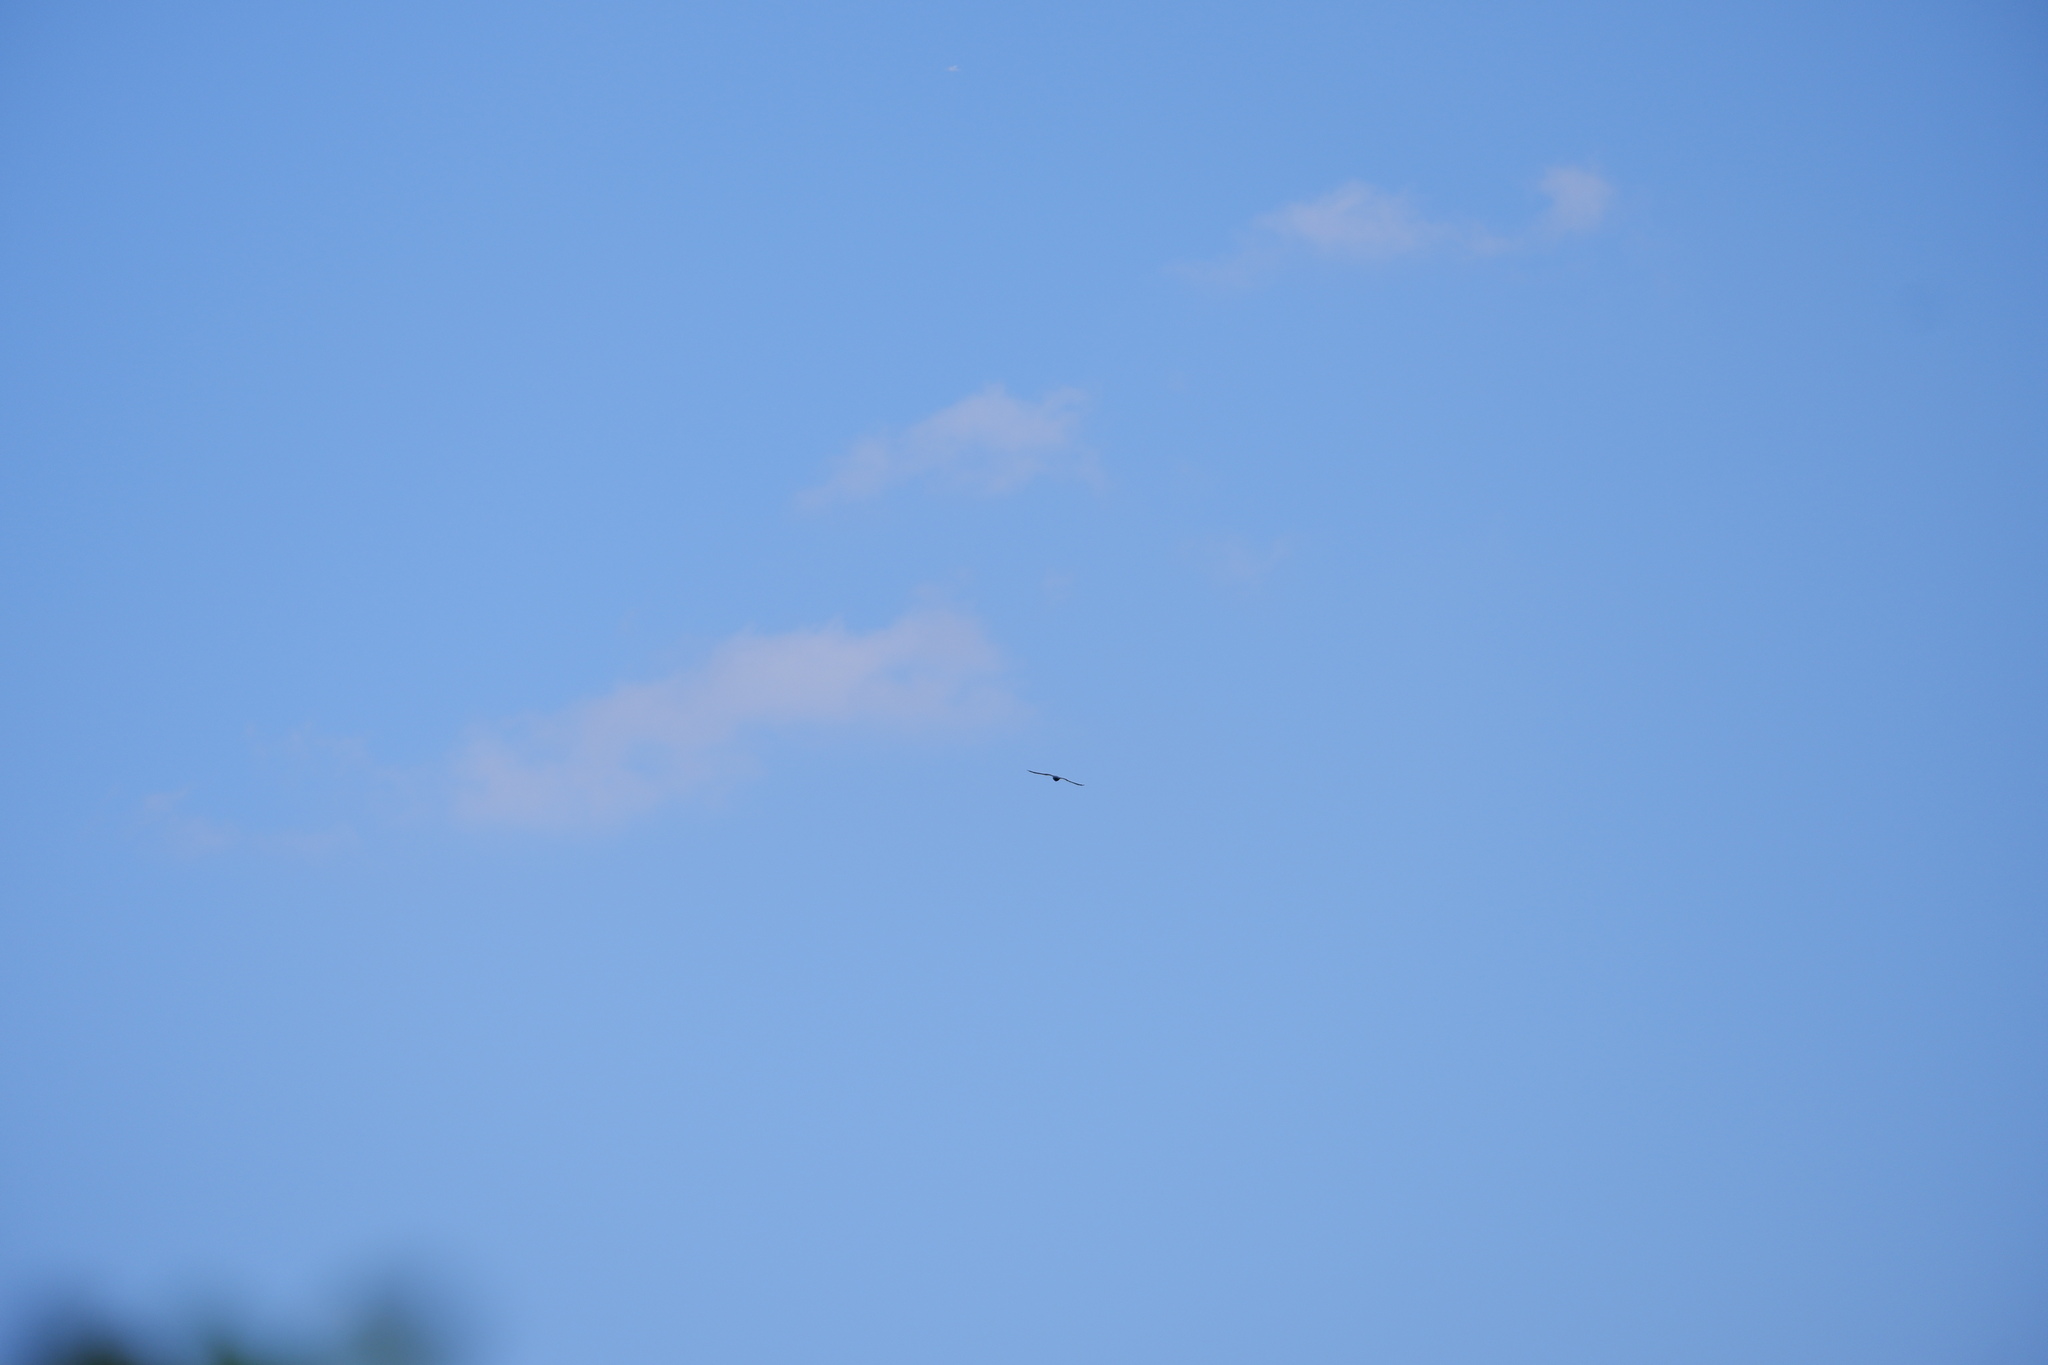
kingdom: Animalia
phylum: Chordata
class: Aves
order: Accipitriformes
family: Accipitridae
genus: Ictinia
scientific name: Ictinia mississippiensis
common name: Mississippi kite
